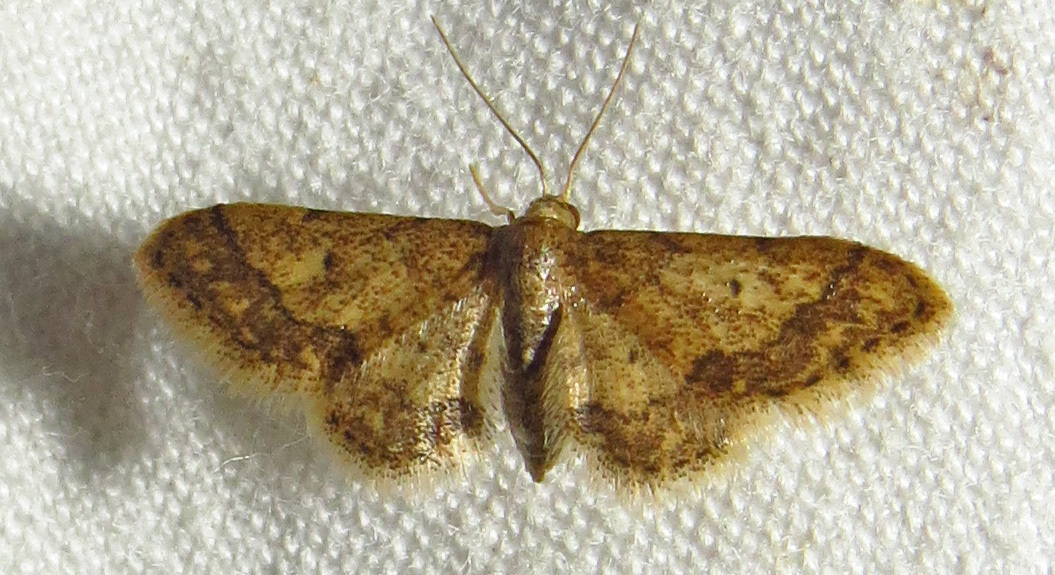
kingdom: Animalia
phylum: Arthropoda
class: Insecta
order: Lepidoptera
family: Geometridae
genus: Idaea
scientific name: Idaea celtima
